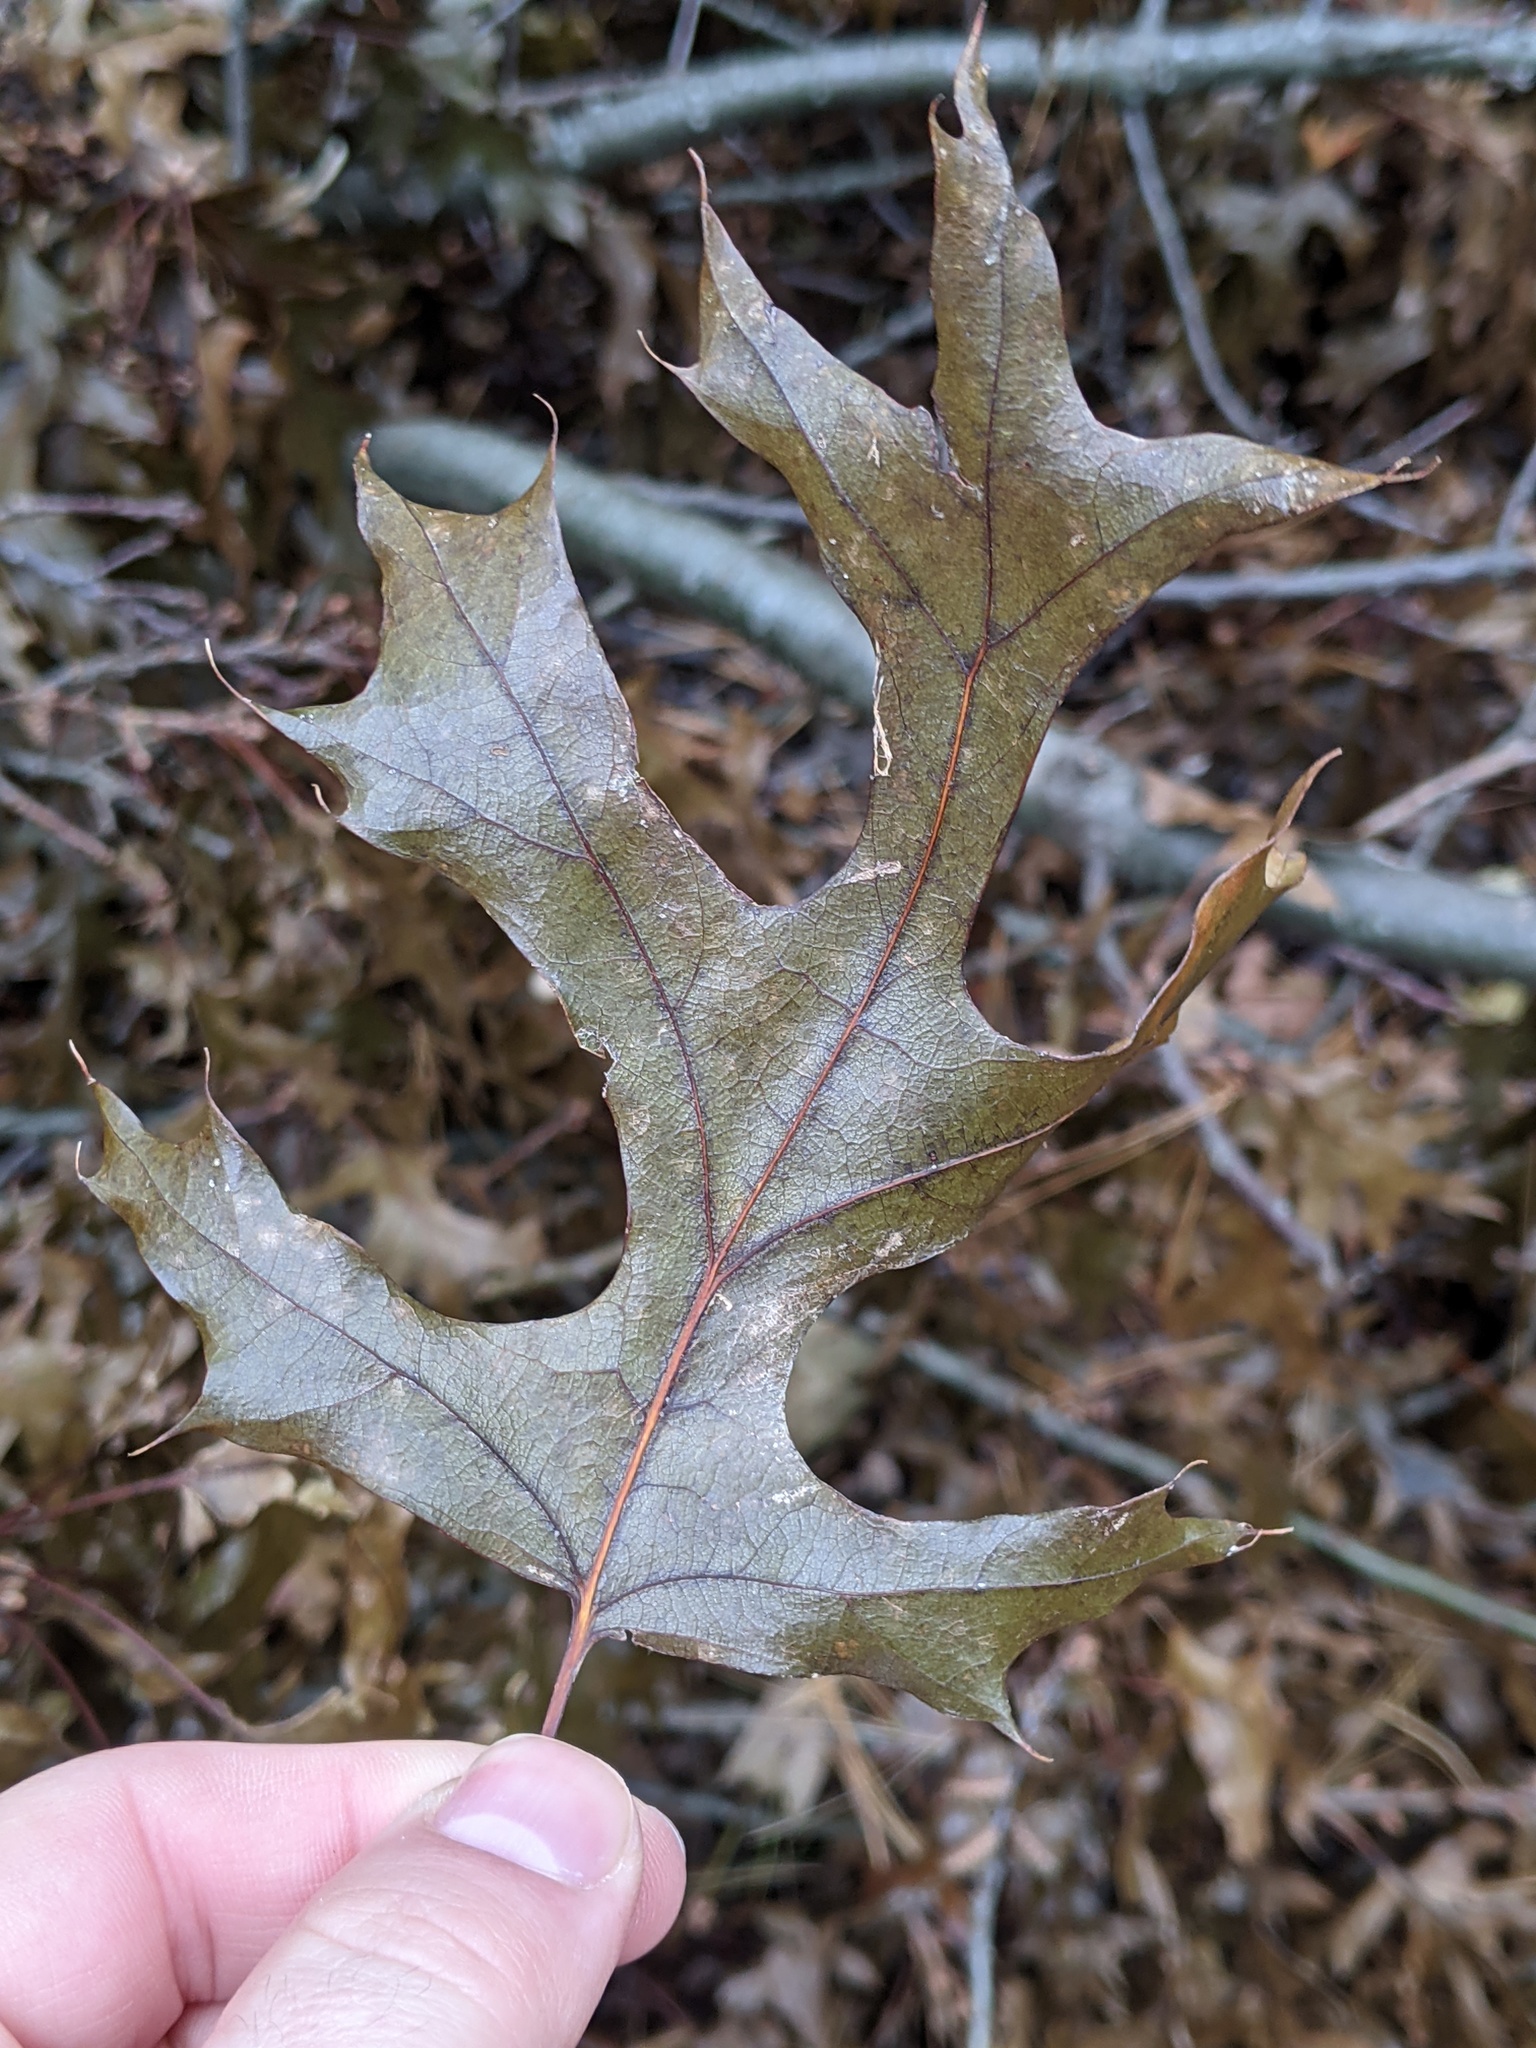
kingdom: Plantae
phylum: Tracheophyta
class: Magnoliopsida
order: Fagales
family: Fagaceae
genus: Quercus
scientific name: Quercus velutina
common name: Black oak
